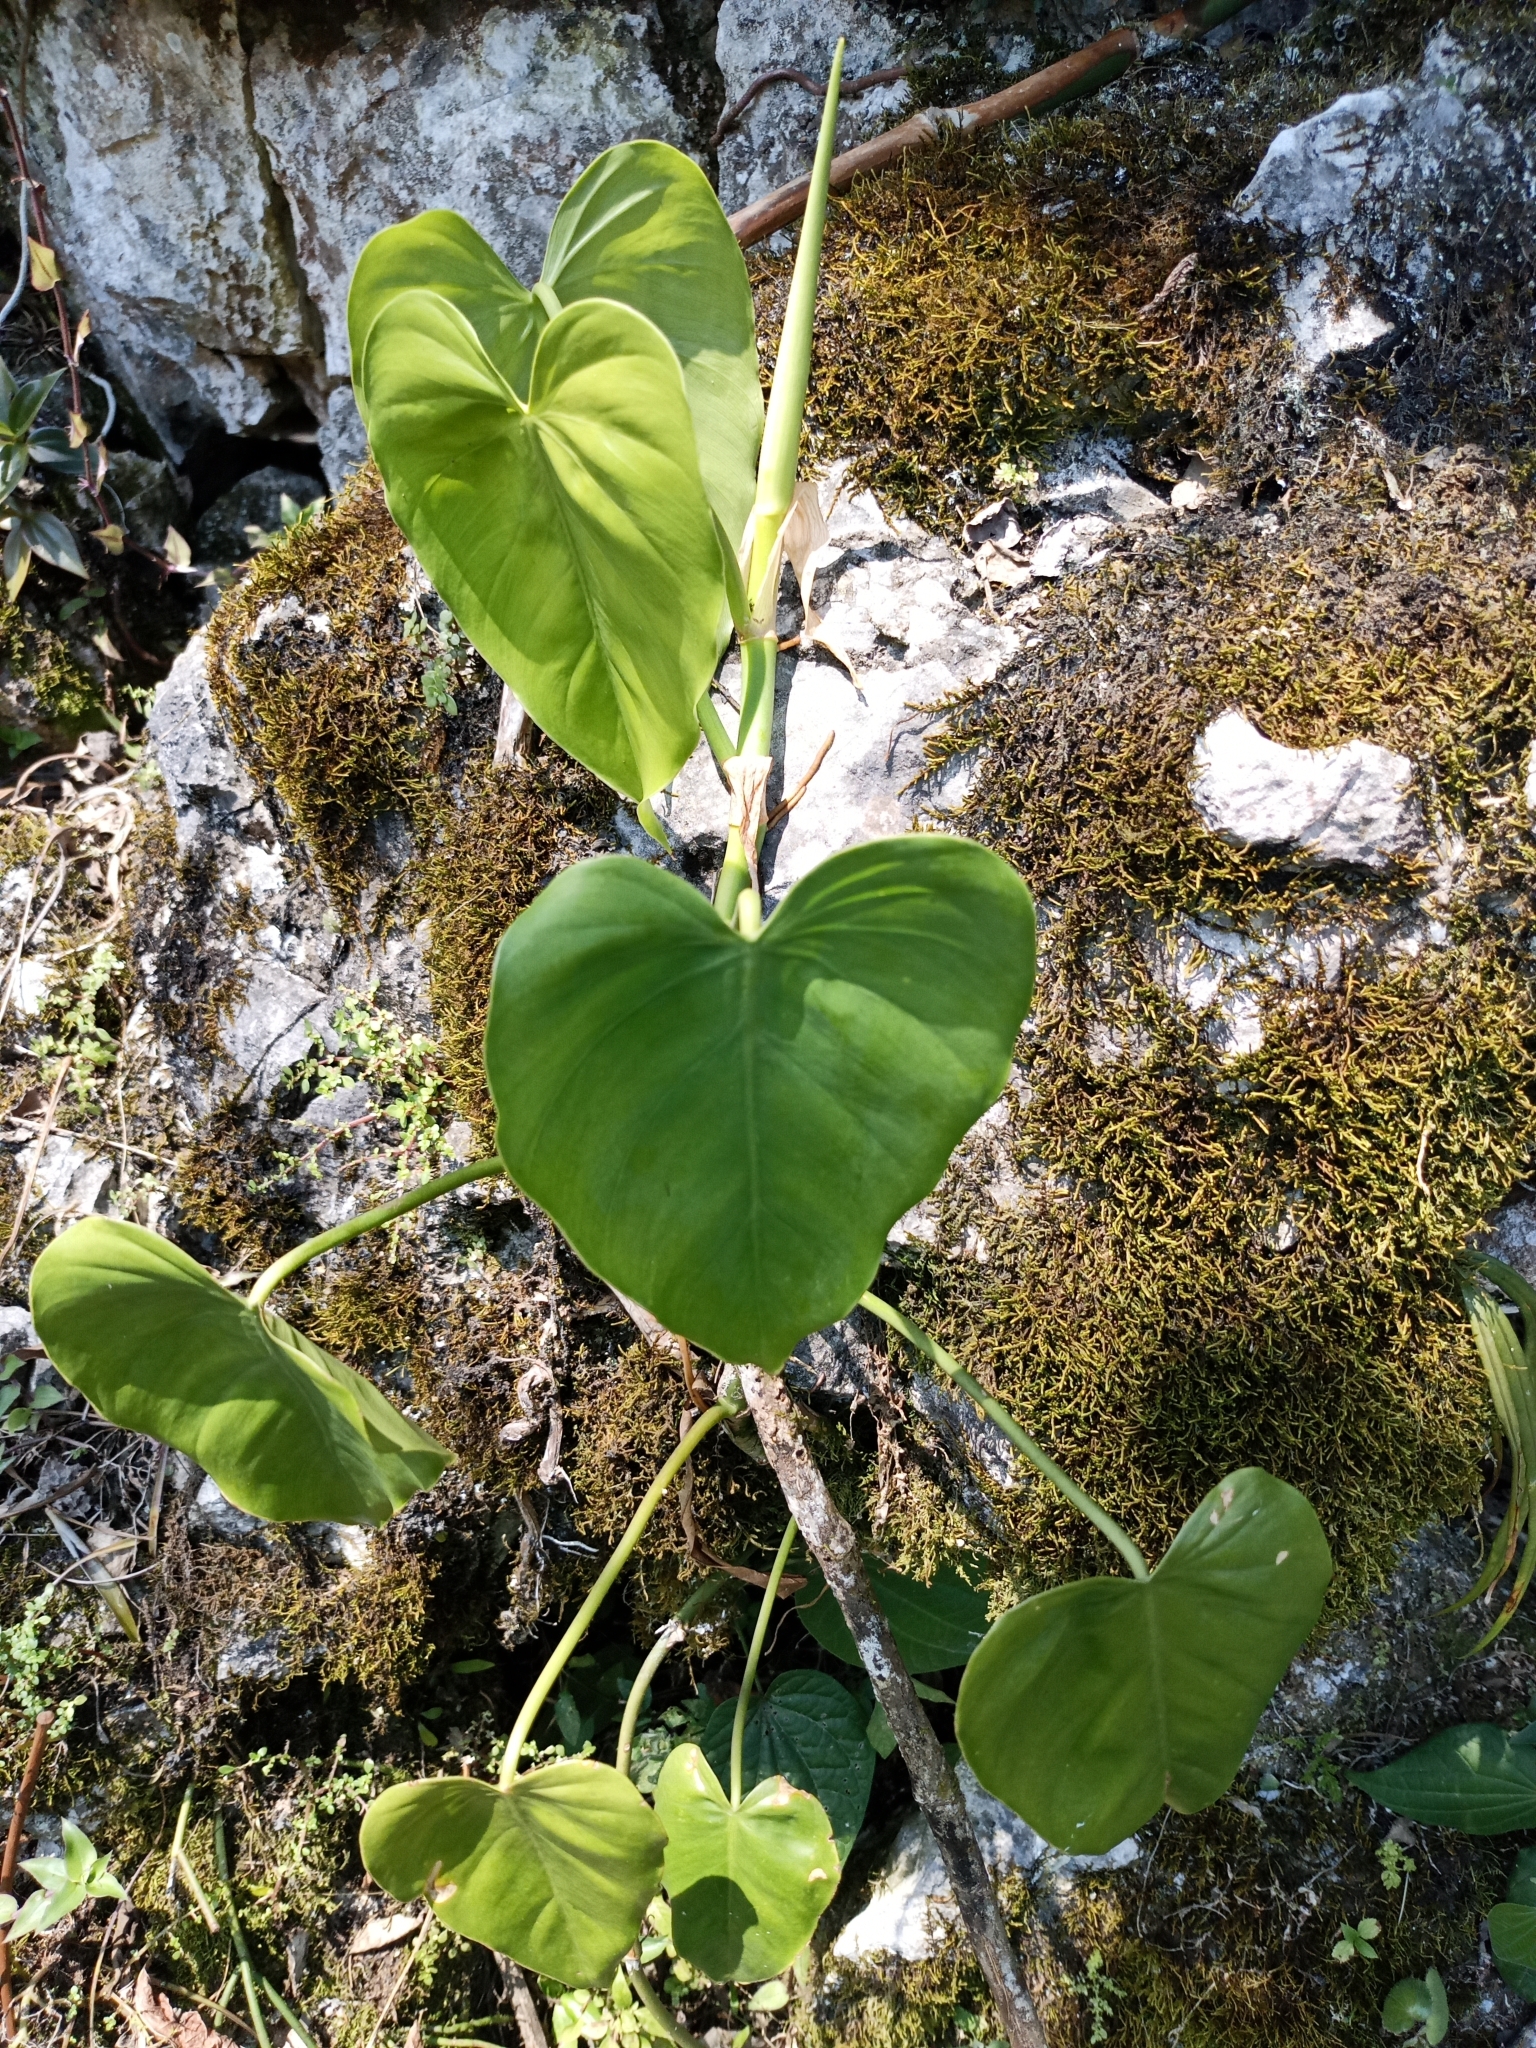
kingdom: Plantae
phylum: Tracheophyta
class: Liliopsida
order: Alismatales
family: Araceae
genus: Philodendron
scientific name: Philodendron hederaceum
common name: Vilevine
